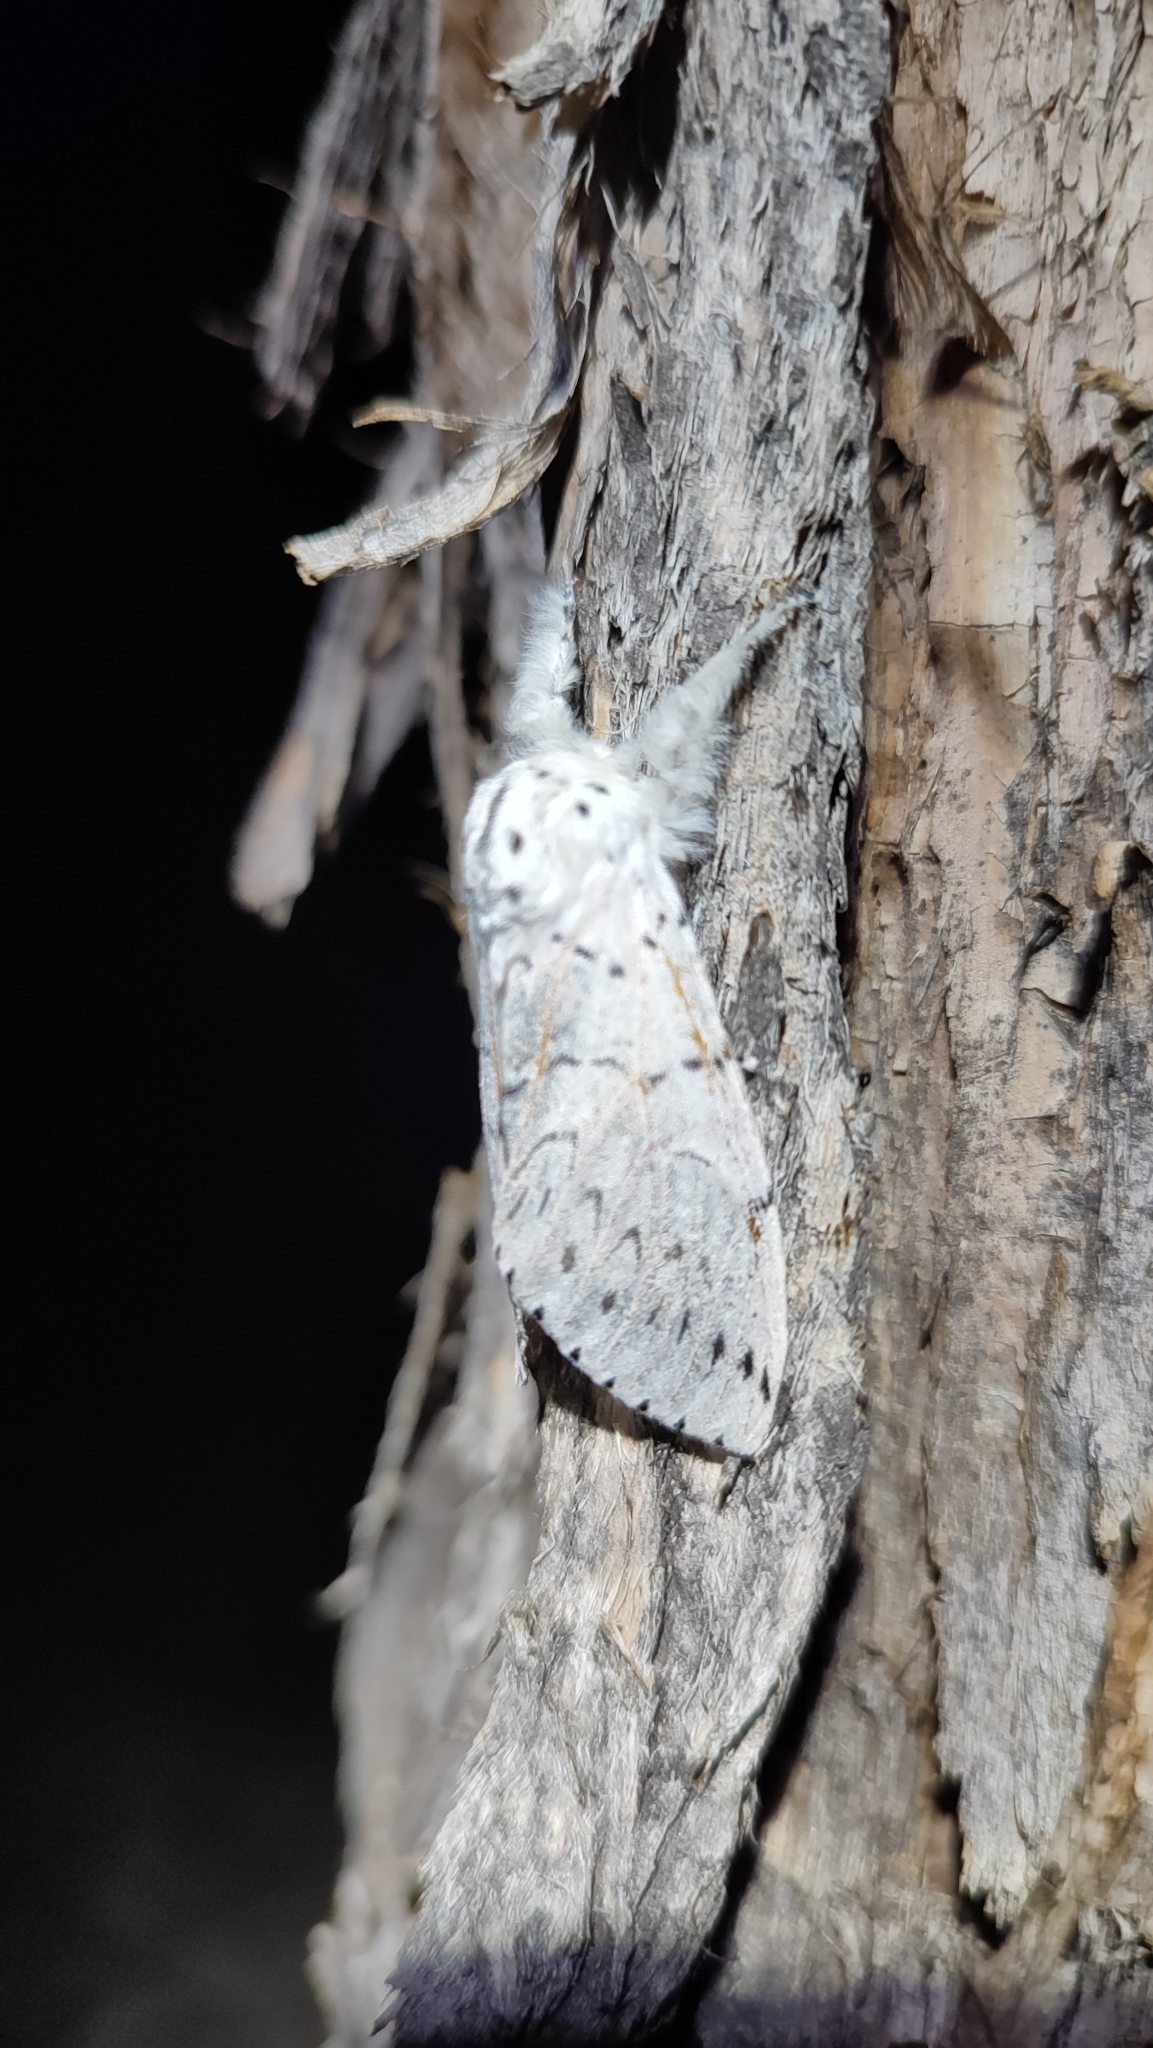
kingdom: Animalia
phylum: Arthropoda
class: Insecta
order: Lepidoptera
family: Notodontidae
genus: Cerura
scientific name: Cerura przewalskii
